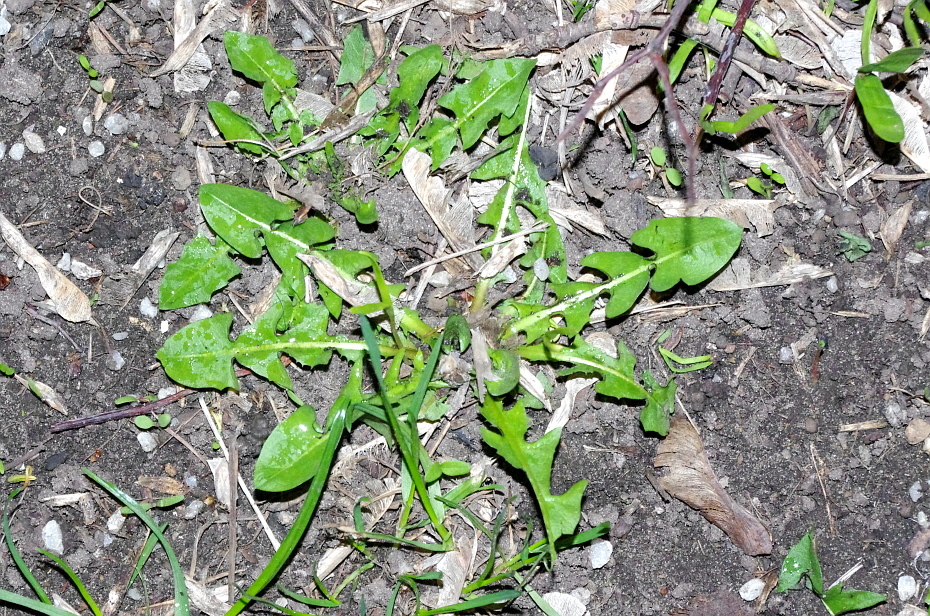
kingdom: Plantae
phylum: Tracheophyta
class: Magnoliopsida
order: Asterales
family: Asteraceae
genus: Taraxacum
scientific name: Taraxacum officinale
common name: Common dandelion
